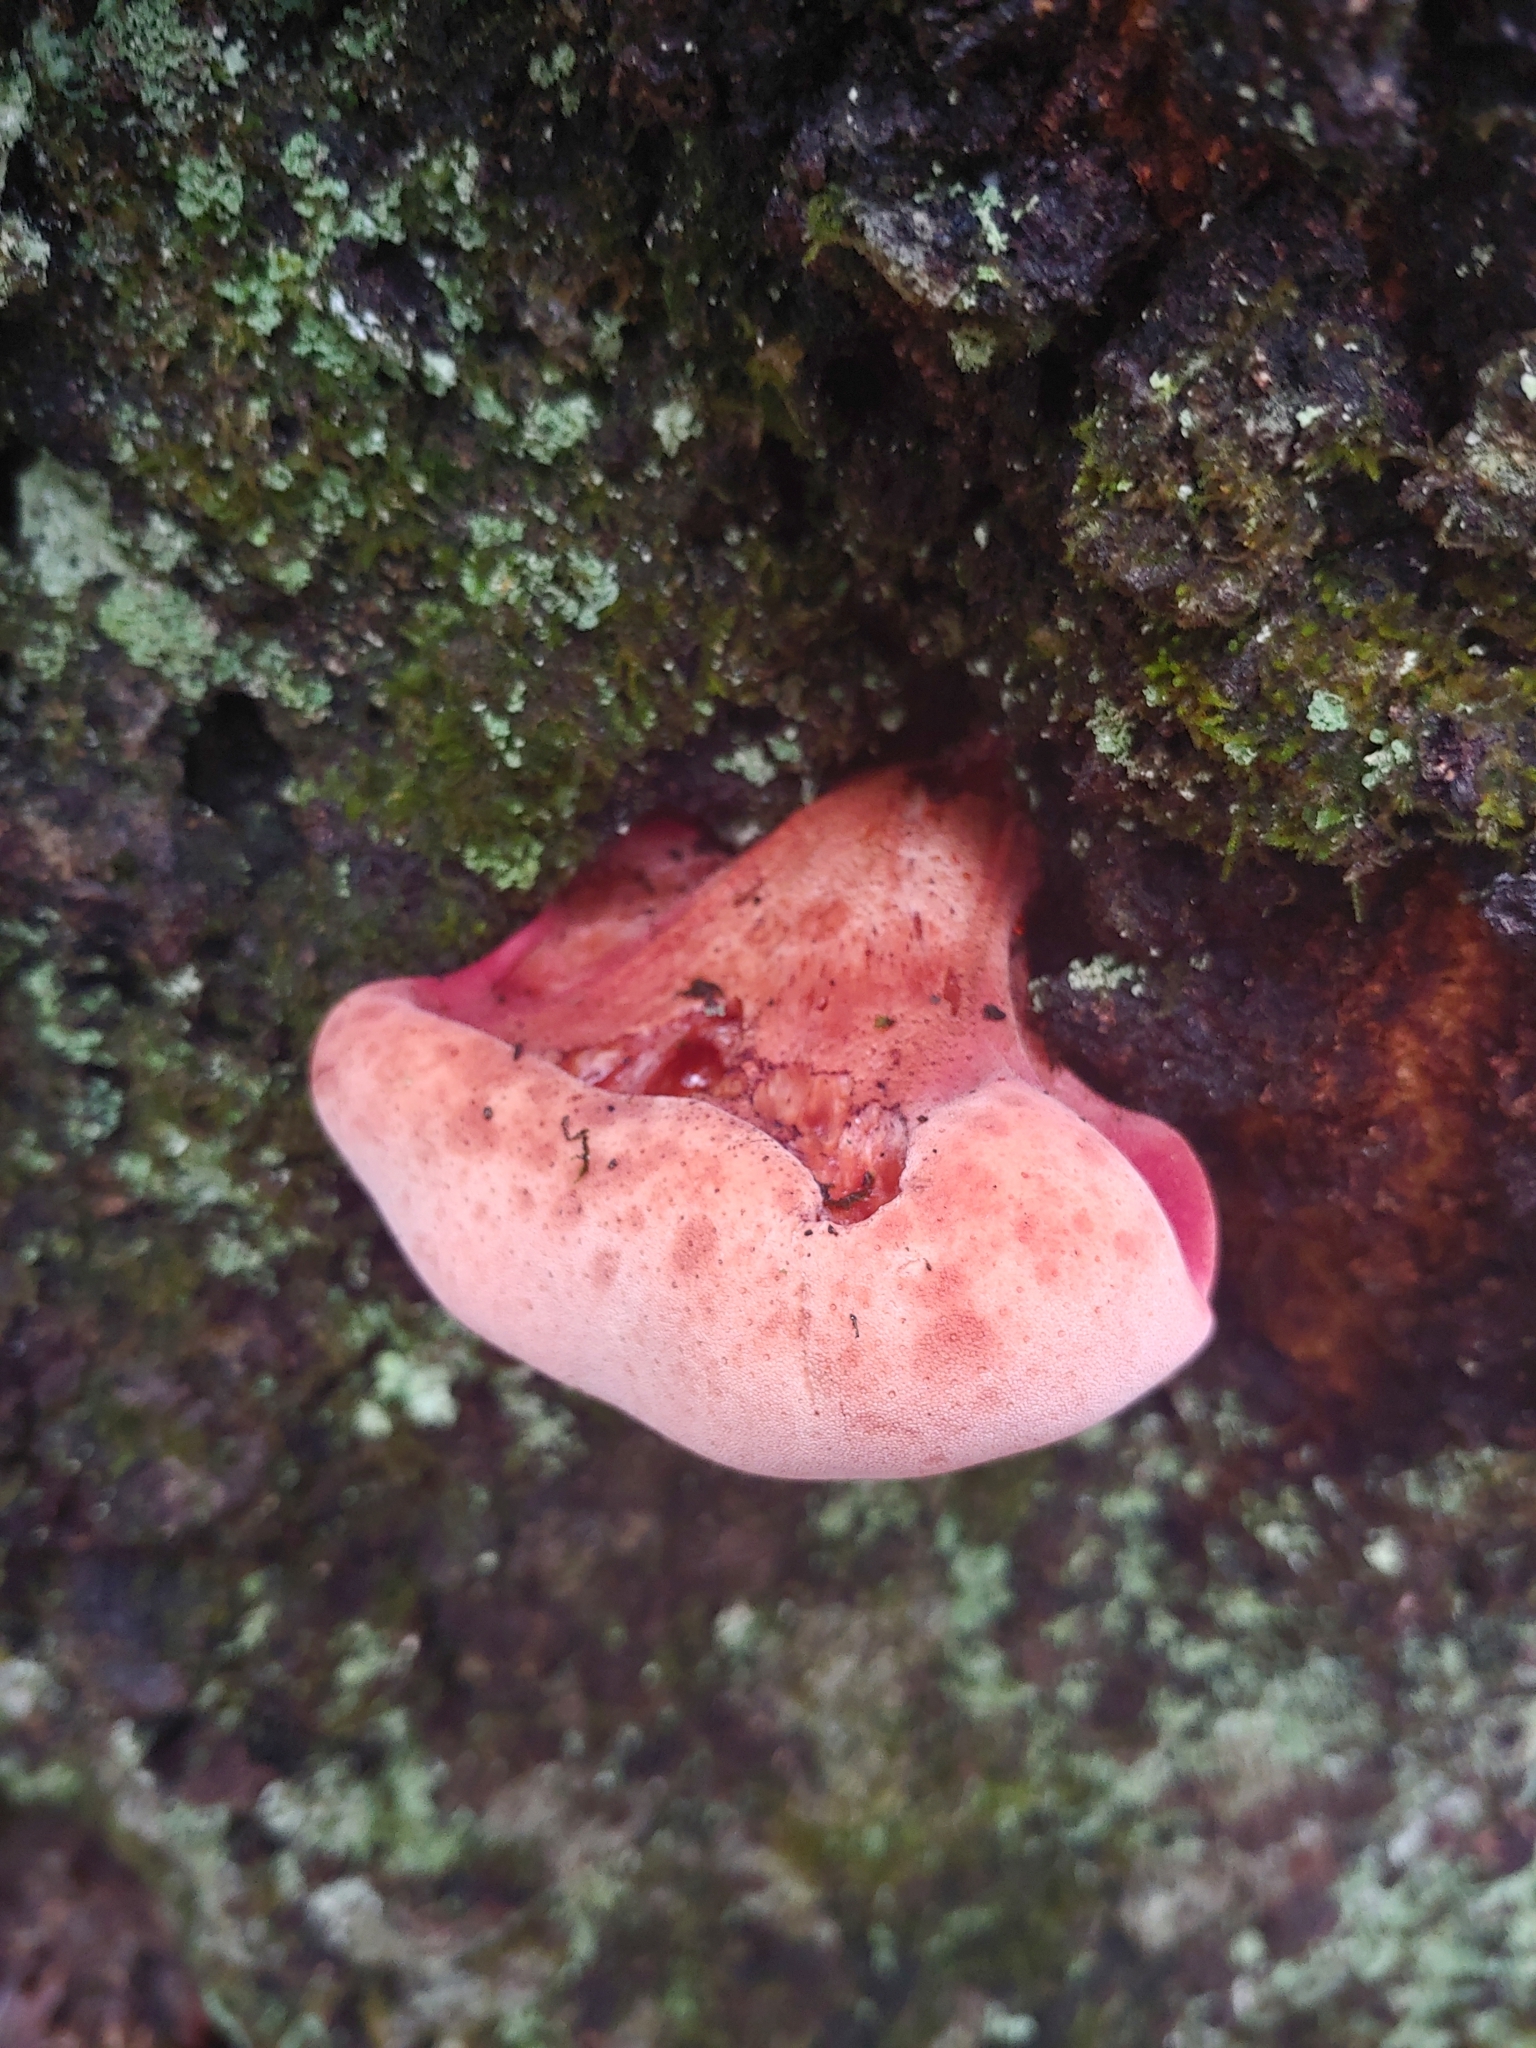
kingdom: Fungi
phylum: Basidiomycota
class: Agaricomycetes
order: Agaricales
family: Fistulinaceae
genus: Fistulina
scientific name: Fistulina hepatica
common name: Beef-steak fungus
